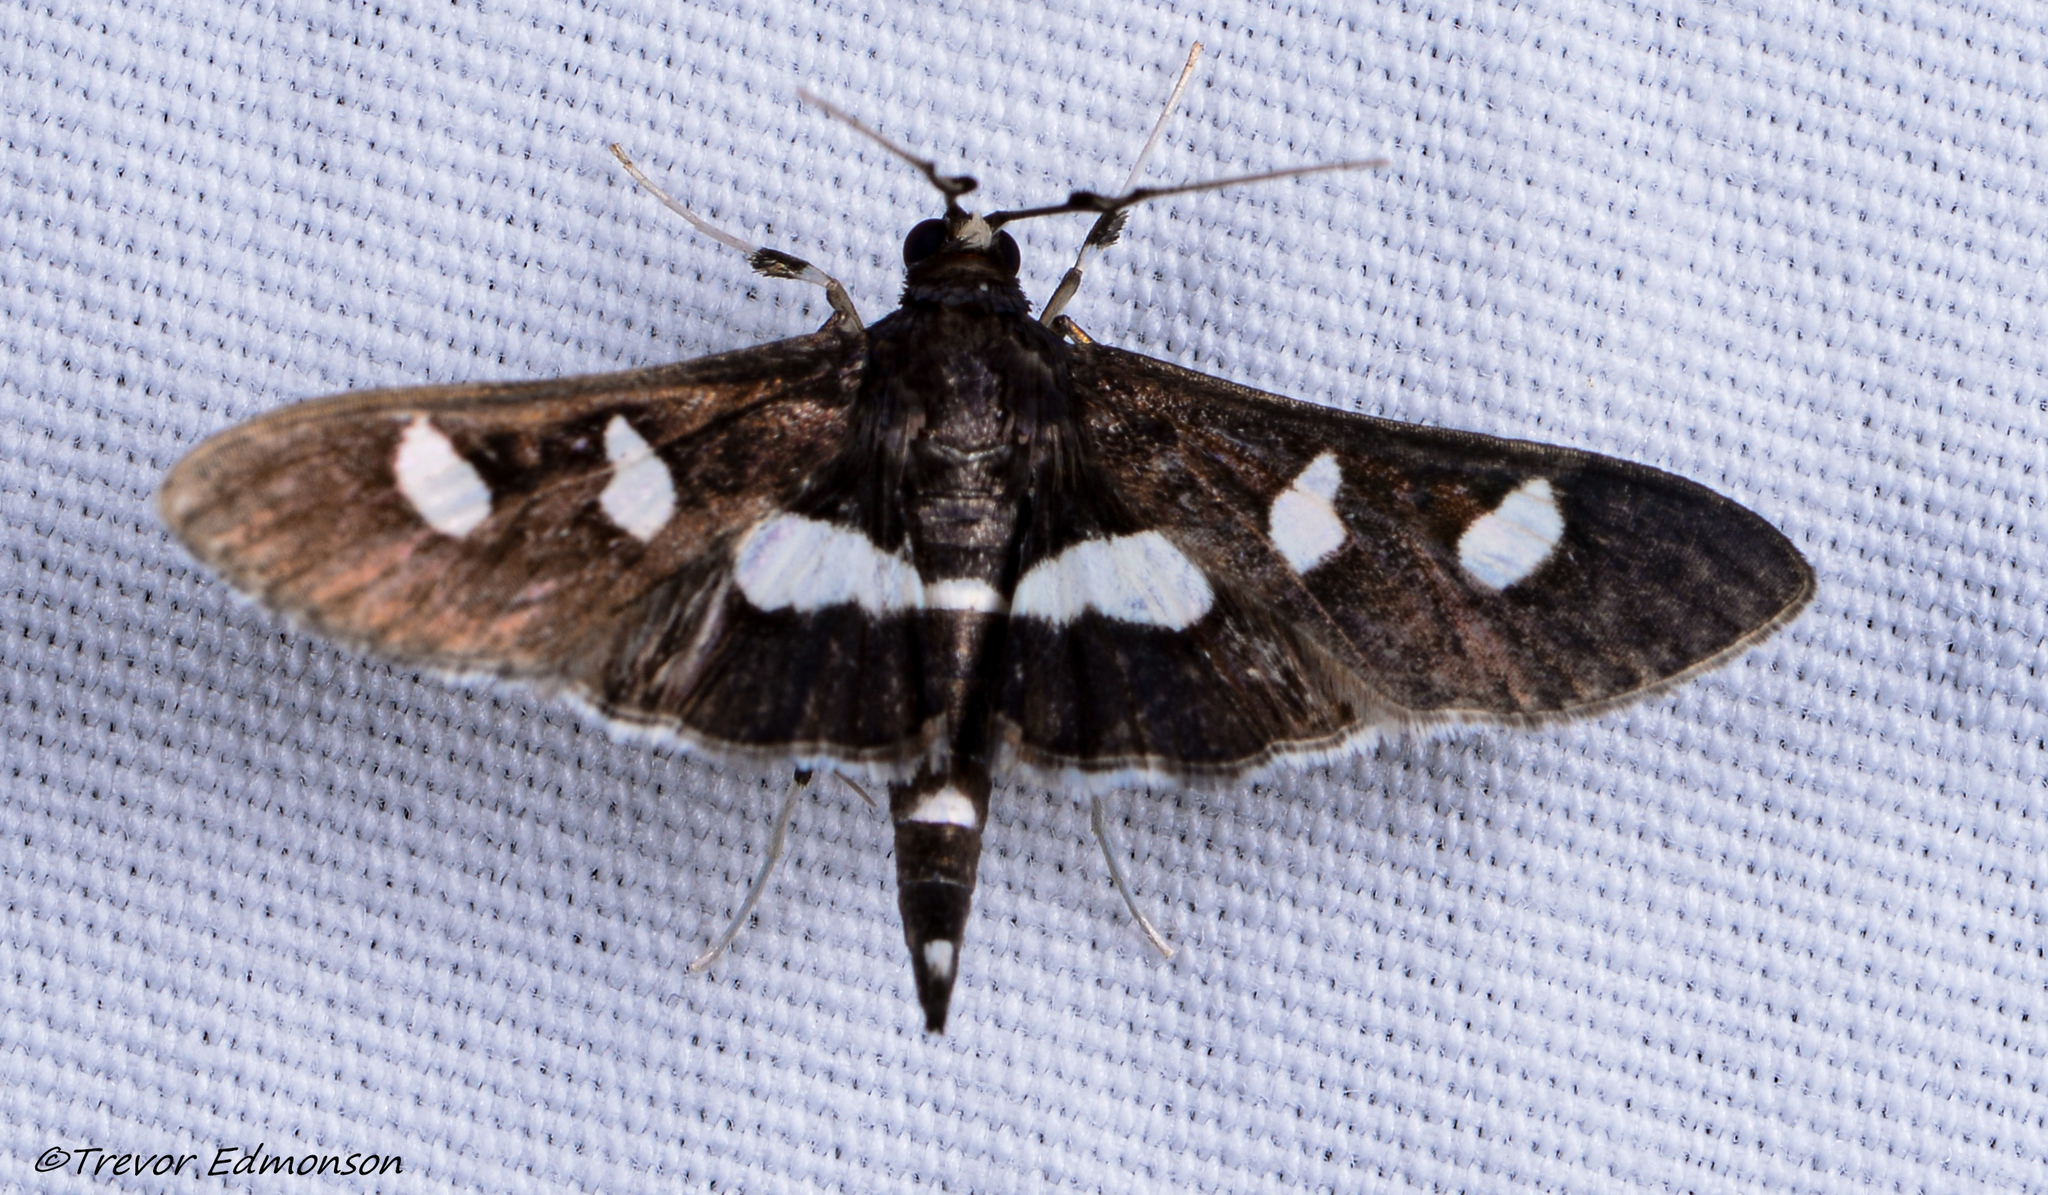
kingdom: Animalia
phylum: Arthropoda
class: Insecta
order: Lepidoptera
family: Crambidae
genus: Desmia
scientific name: Desmia
